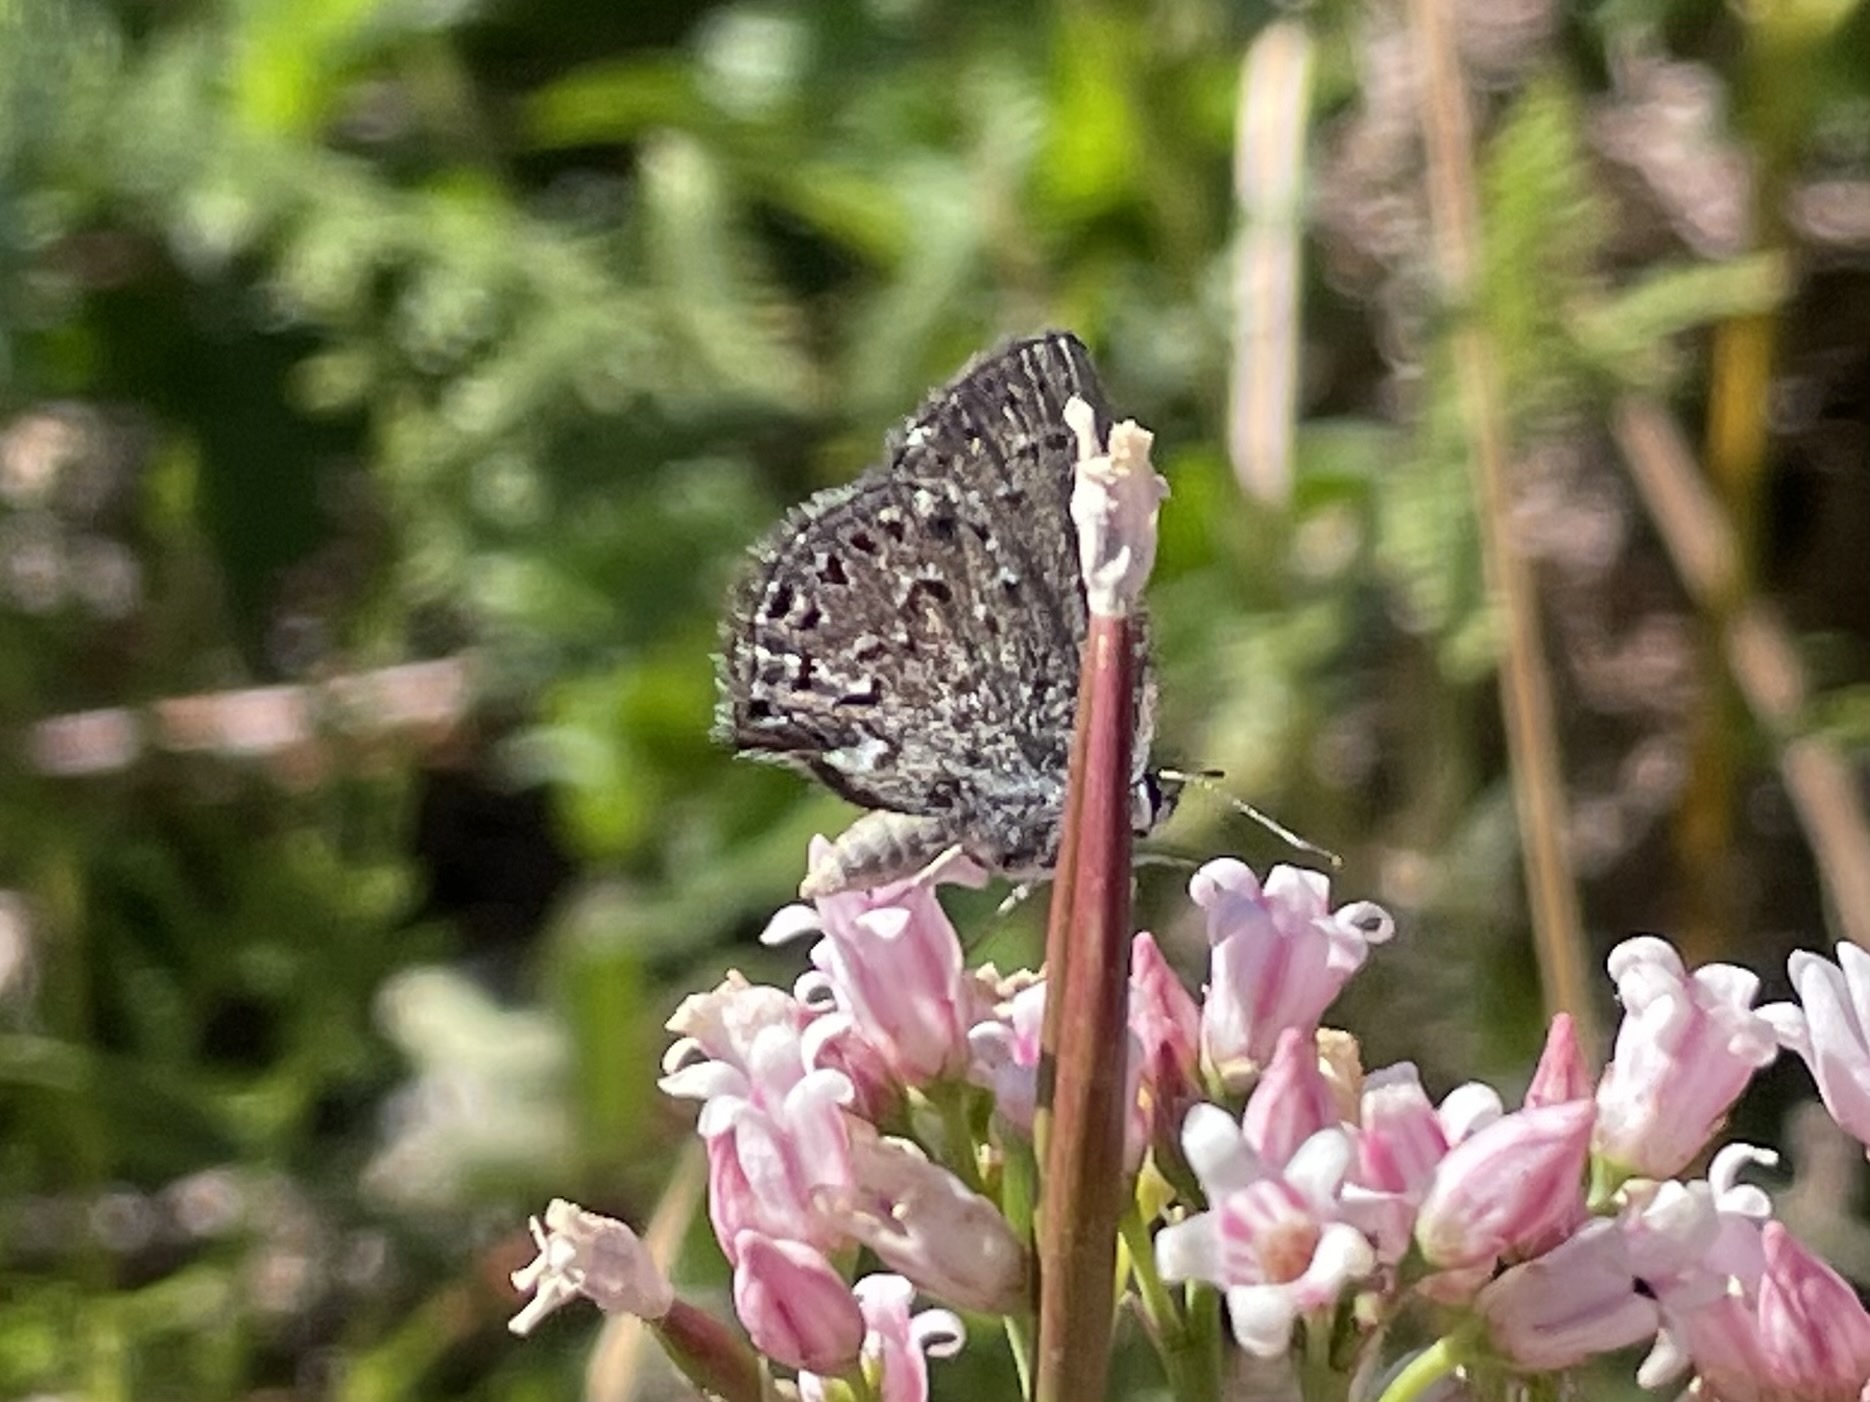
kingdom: Animalia
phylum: Arthropoda
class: Insecta
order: Lepidoptera
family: Lycaenidae
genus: Satyrium
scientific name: Satyrium behrii
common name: Behr's hairstreak
